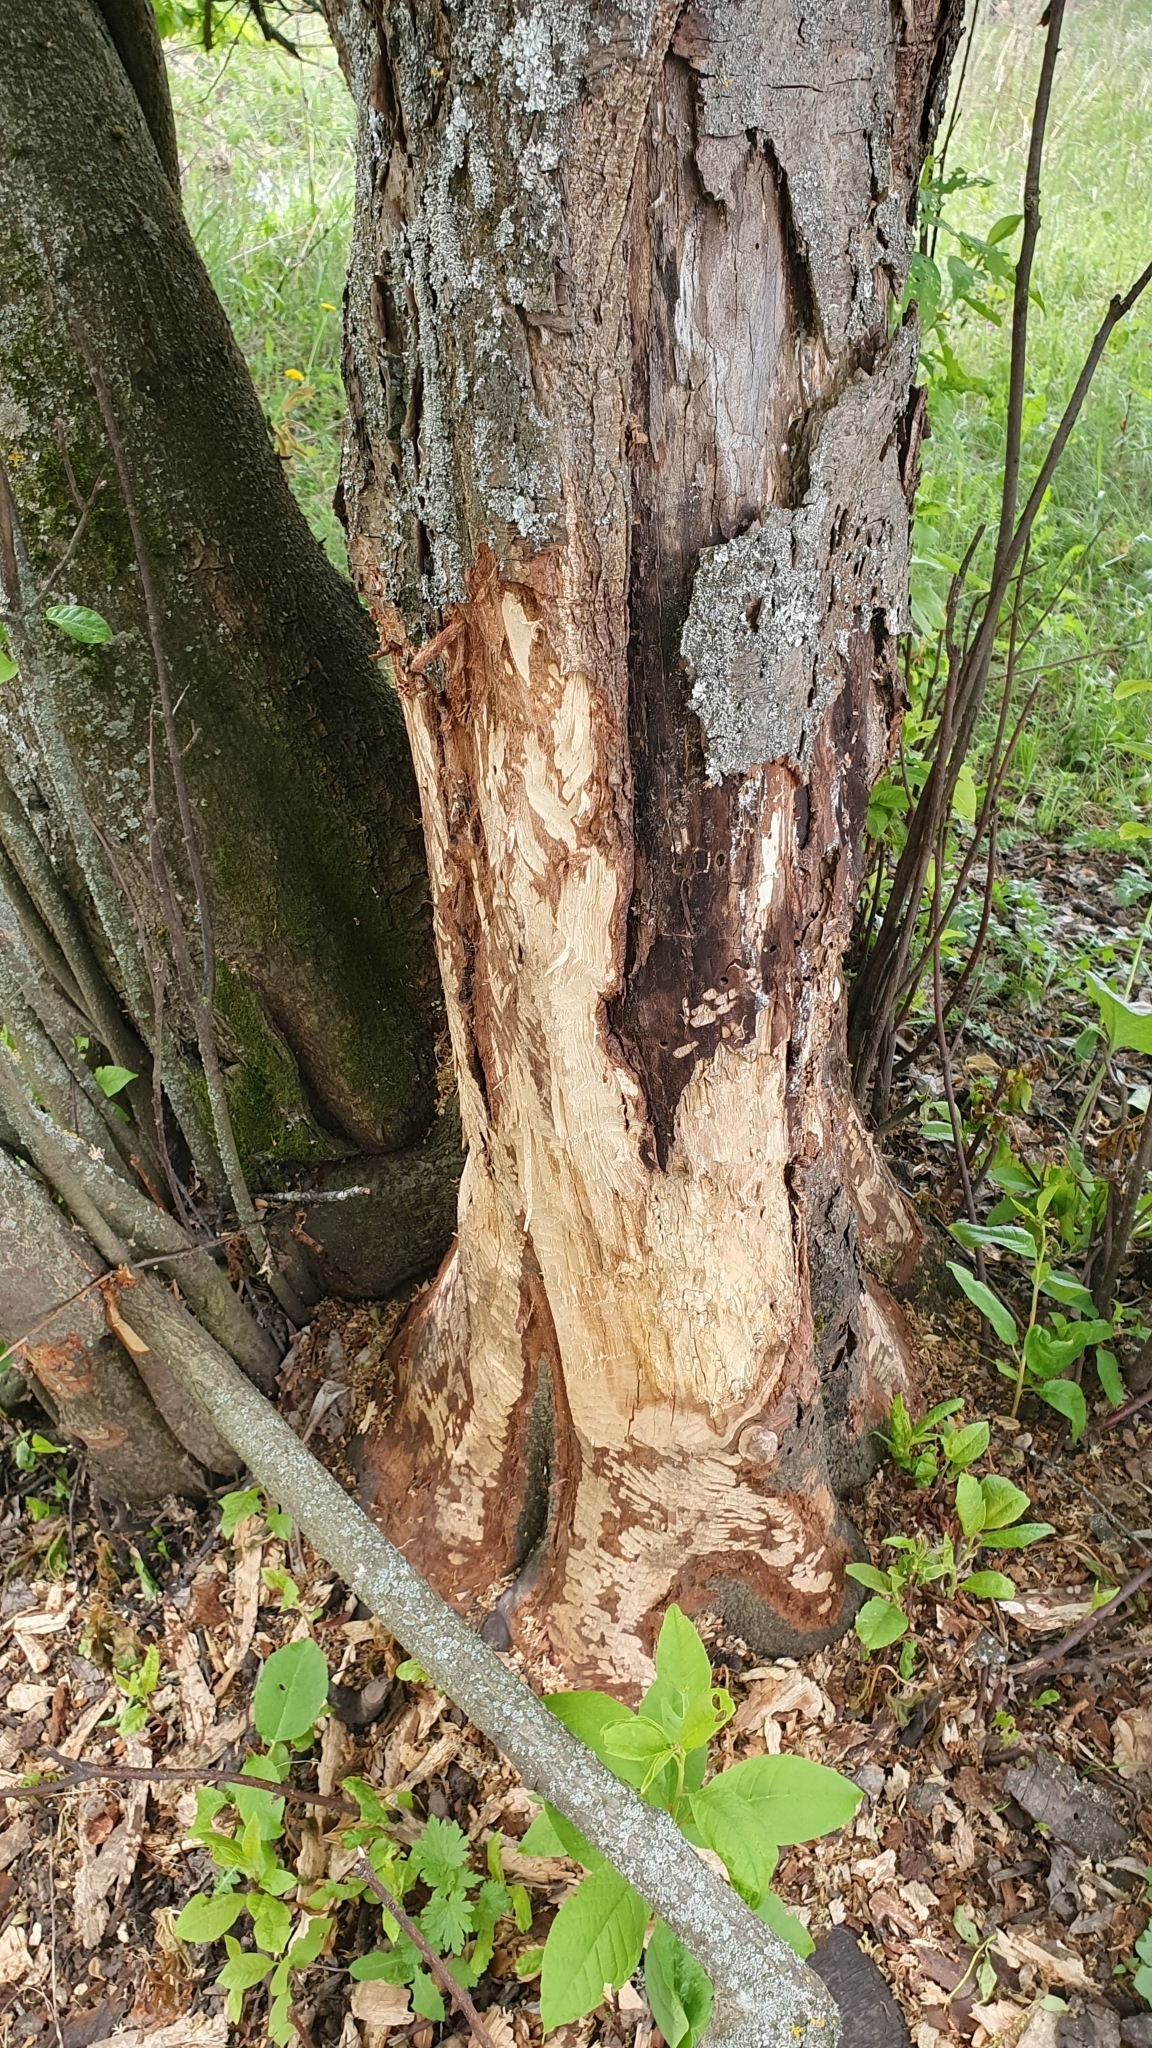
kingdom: Animalia
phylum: Chordata
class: Mammalia
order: Rodentia
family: Castoridae
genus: Castor
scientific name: Castor fiber
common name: Eurasian beaver
